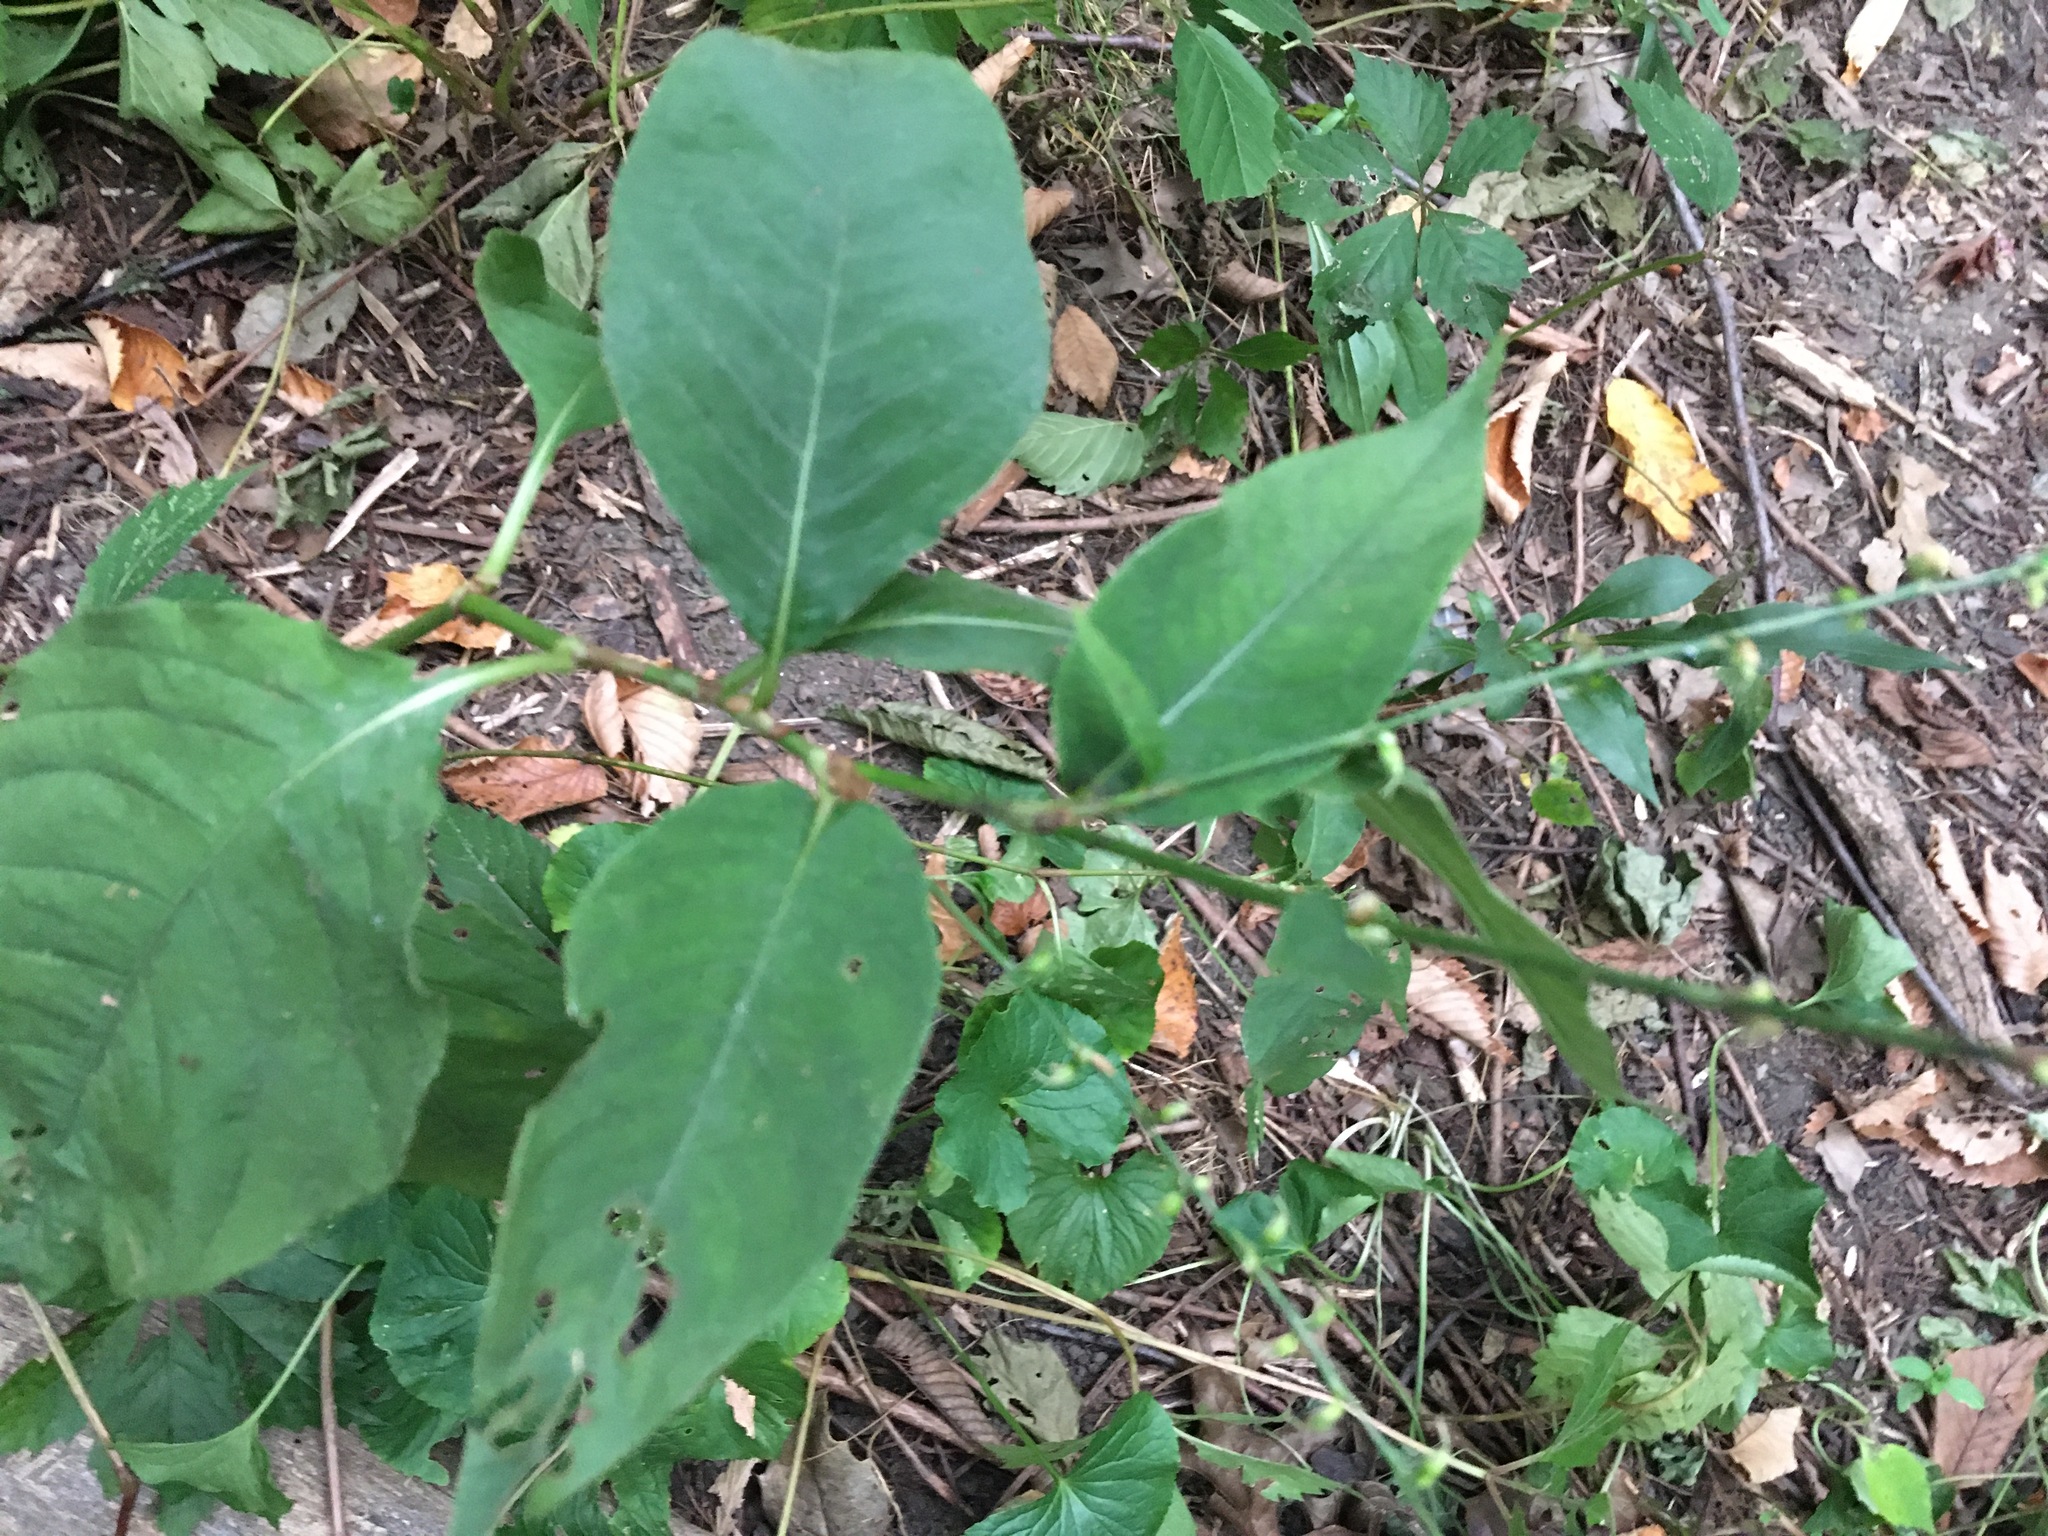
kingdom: Plantae
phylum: Tracheophyta
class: Magnoliopsida
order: Caryophyllales
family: Polygonaceae
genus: Persicaria
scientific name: Persicaria virginiana
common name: Jumpseed
